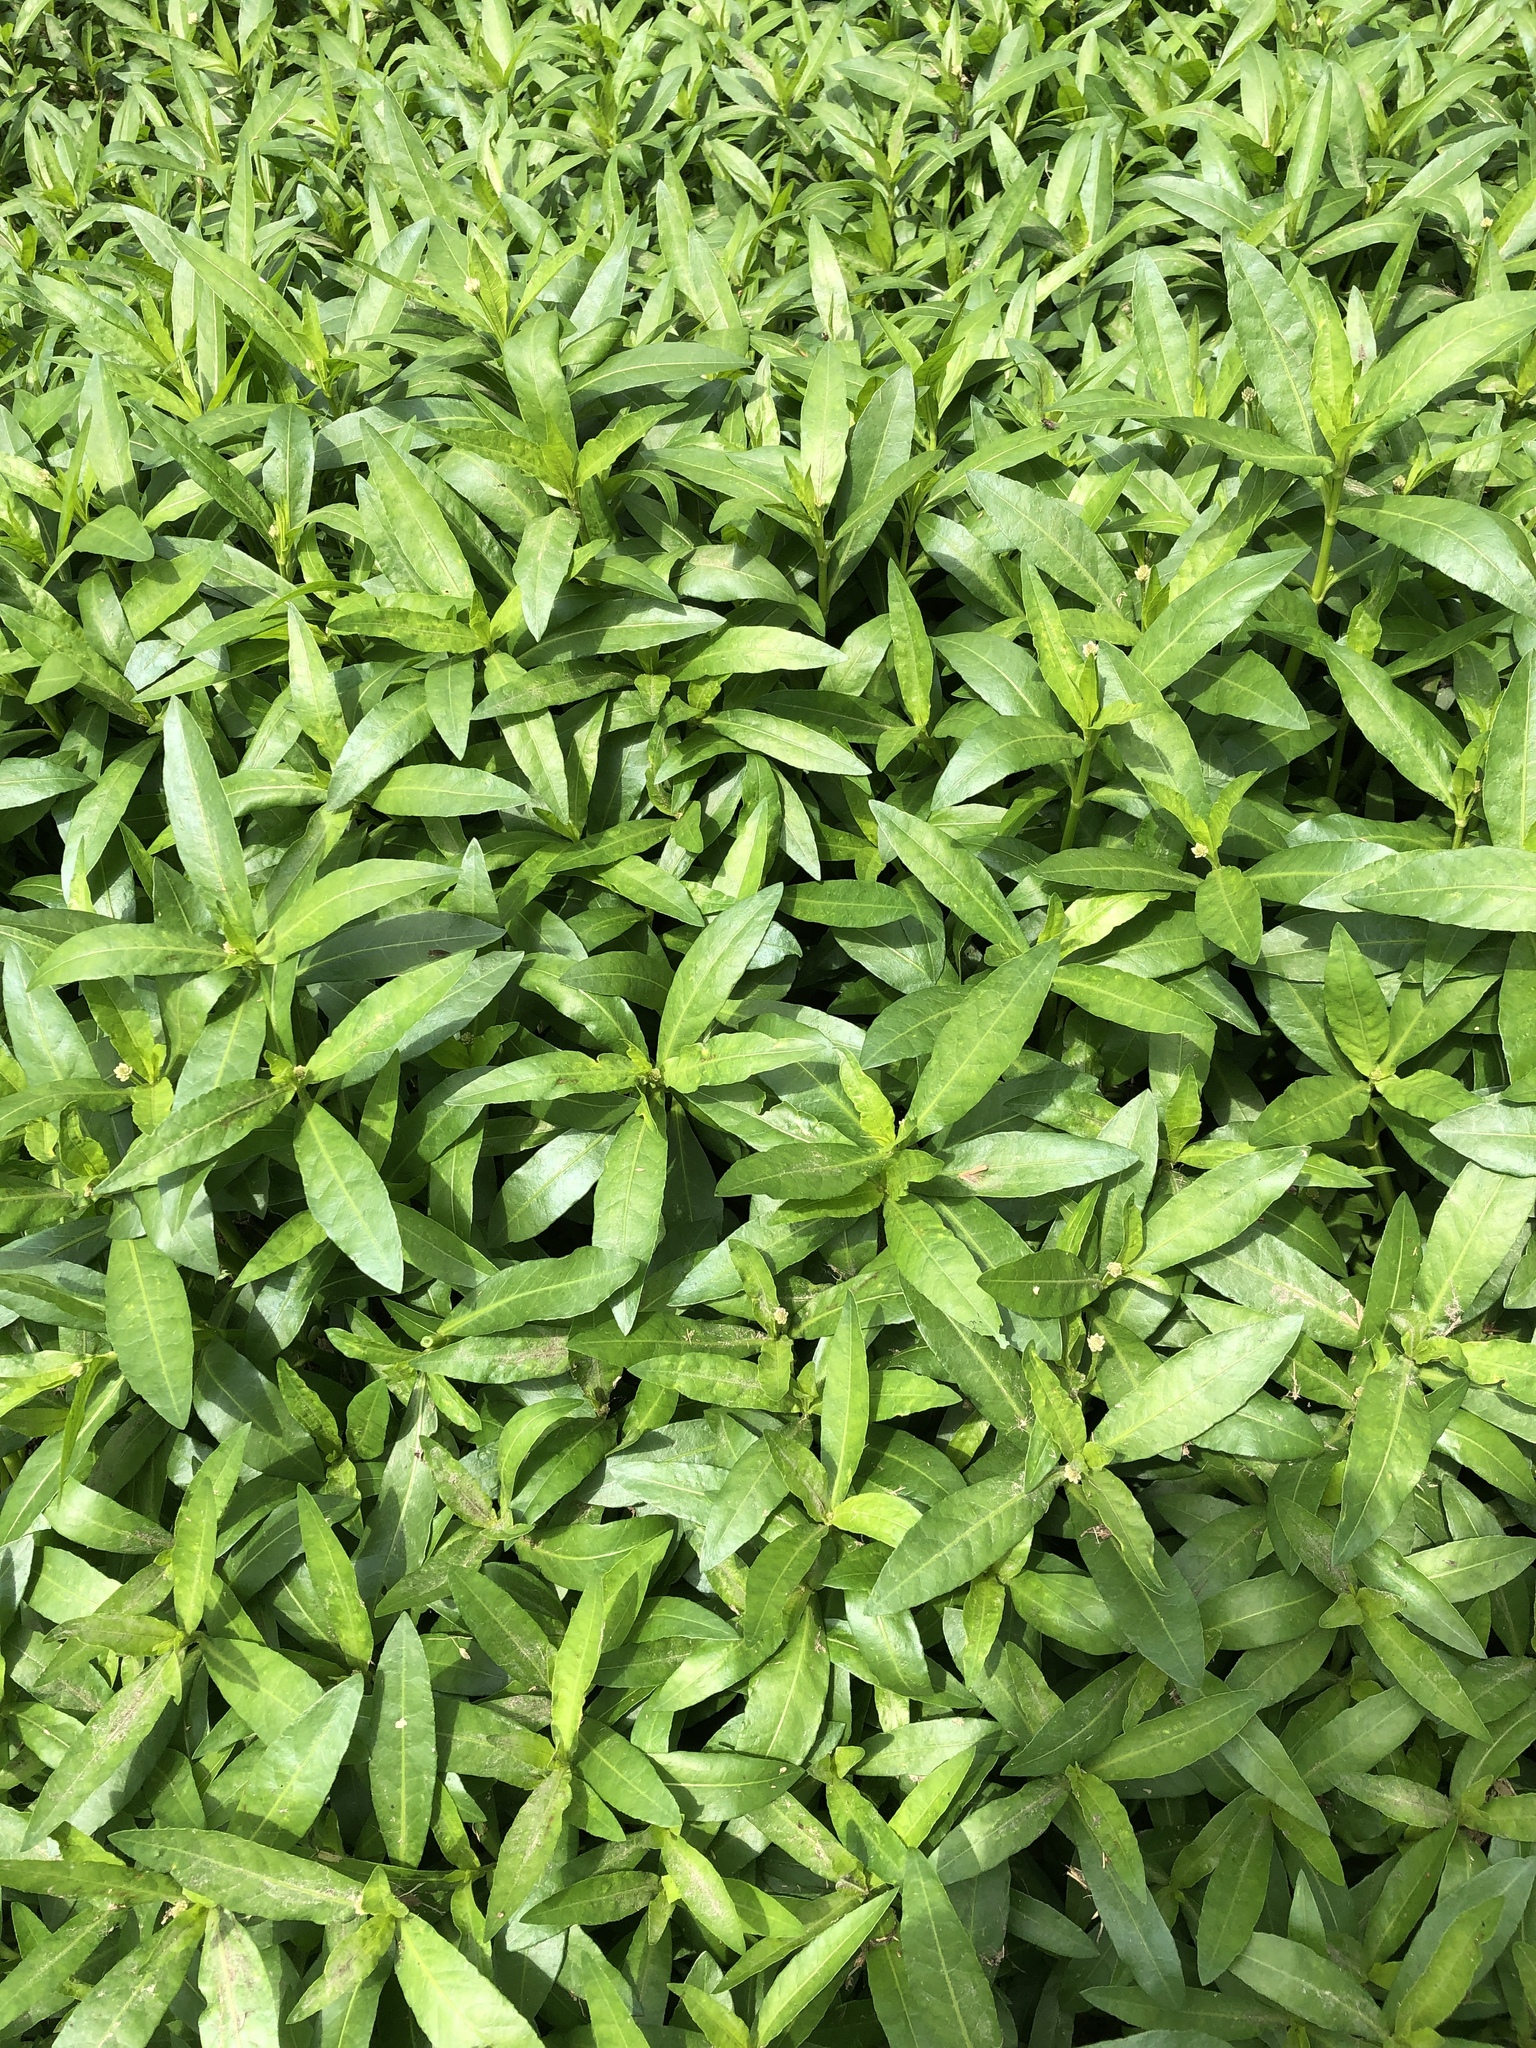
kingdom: Plantae
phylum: Tracheophyta
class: Magnoliopsida
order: Caryophyllales
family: Amaranthaceae
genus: Alternanthera
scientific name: Alternanthera philoxeroides
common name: Alligatorweed
